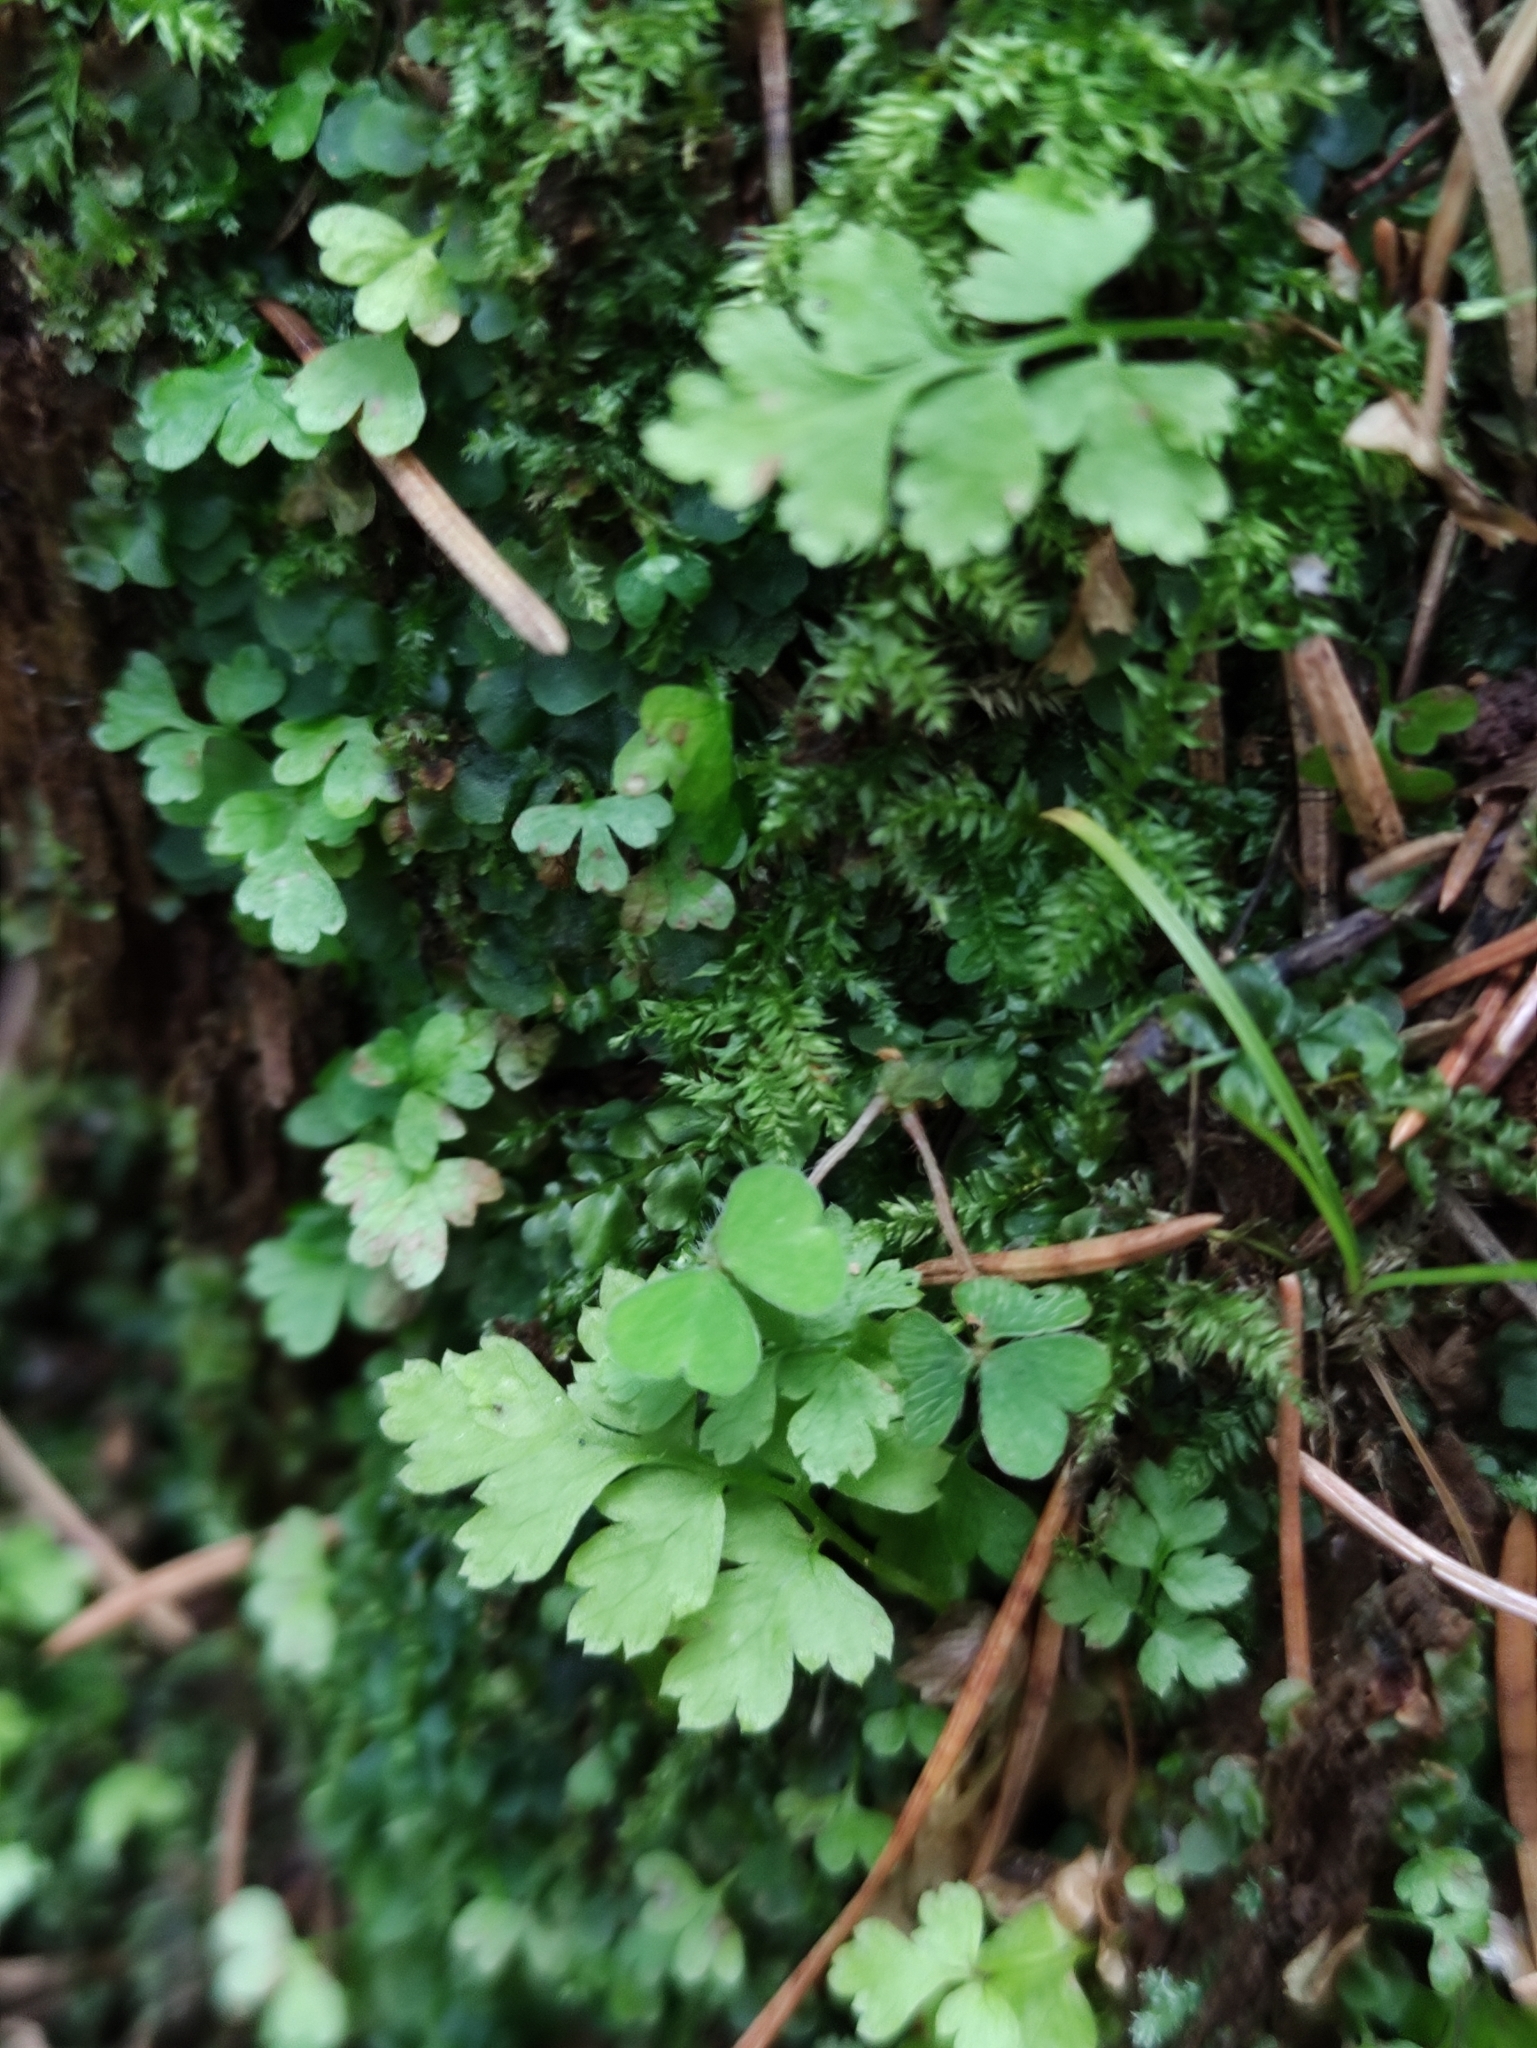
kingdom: Plantae
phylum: Tracheophyta
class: Polypodiopsida
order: Polypodiales
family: Dryopteridaceae
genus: Dryopteris
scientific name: Dryopteris
